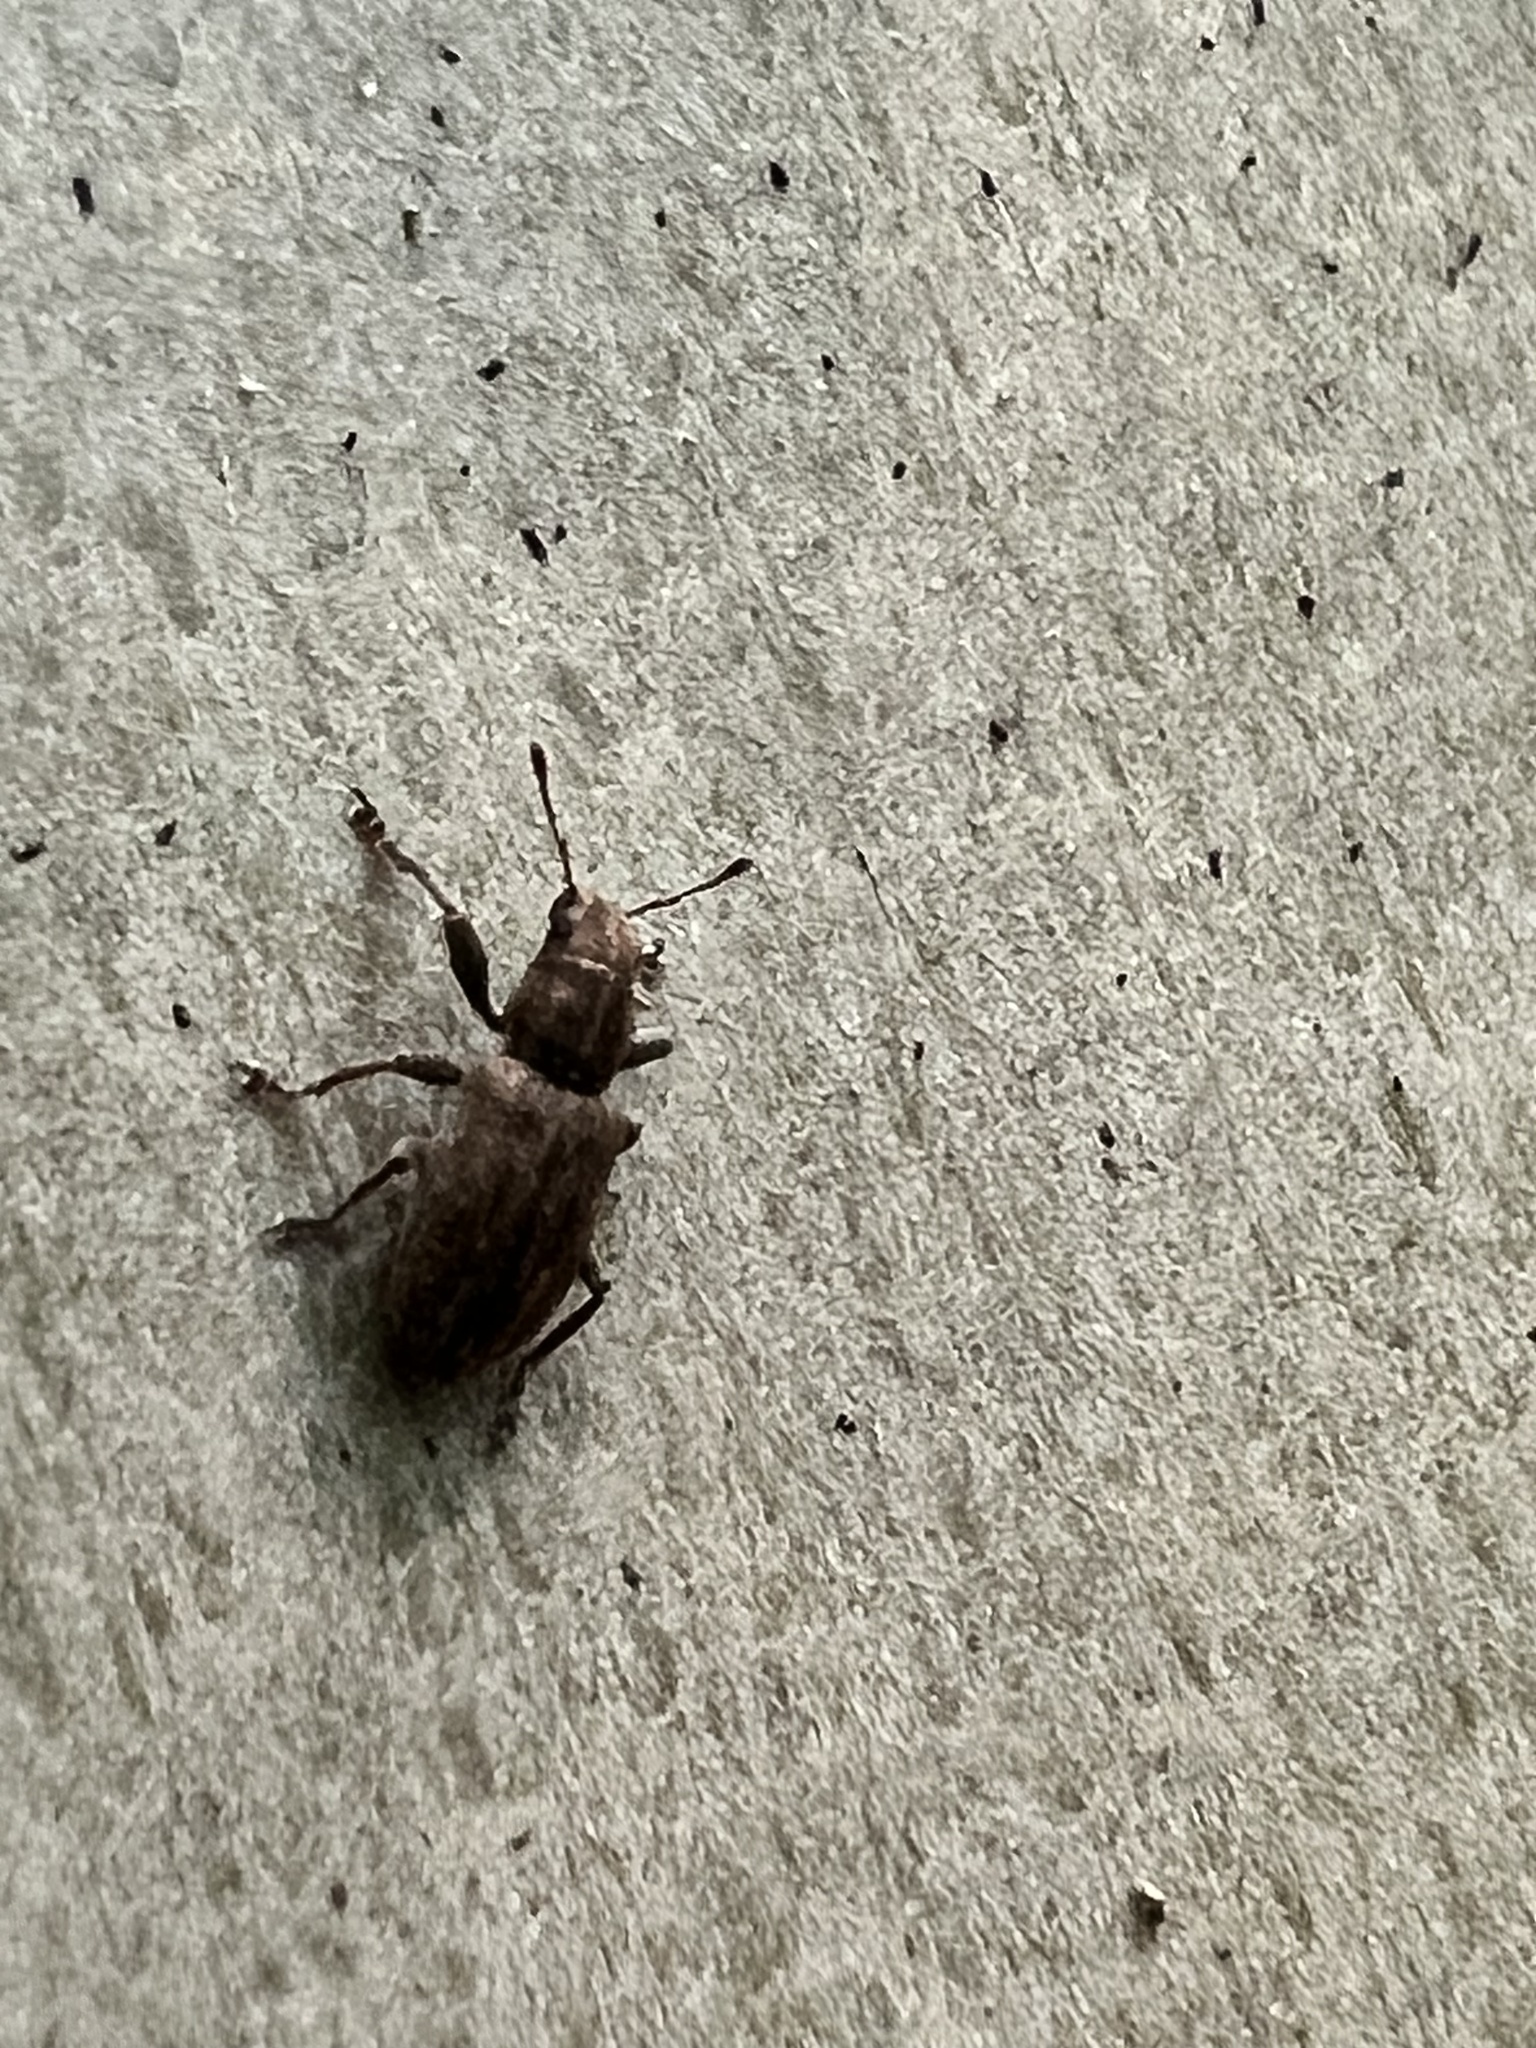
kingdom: Animalia
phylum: Arthropoda
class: Insecta
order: Coleoptera
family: Curculionidae
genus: Sitona
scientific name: Sitona obsoletus
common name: Weevil
